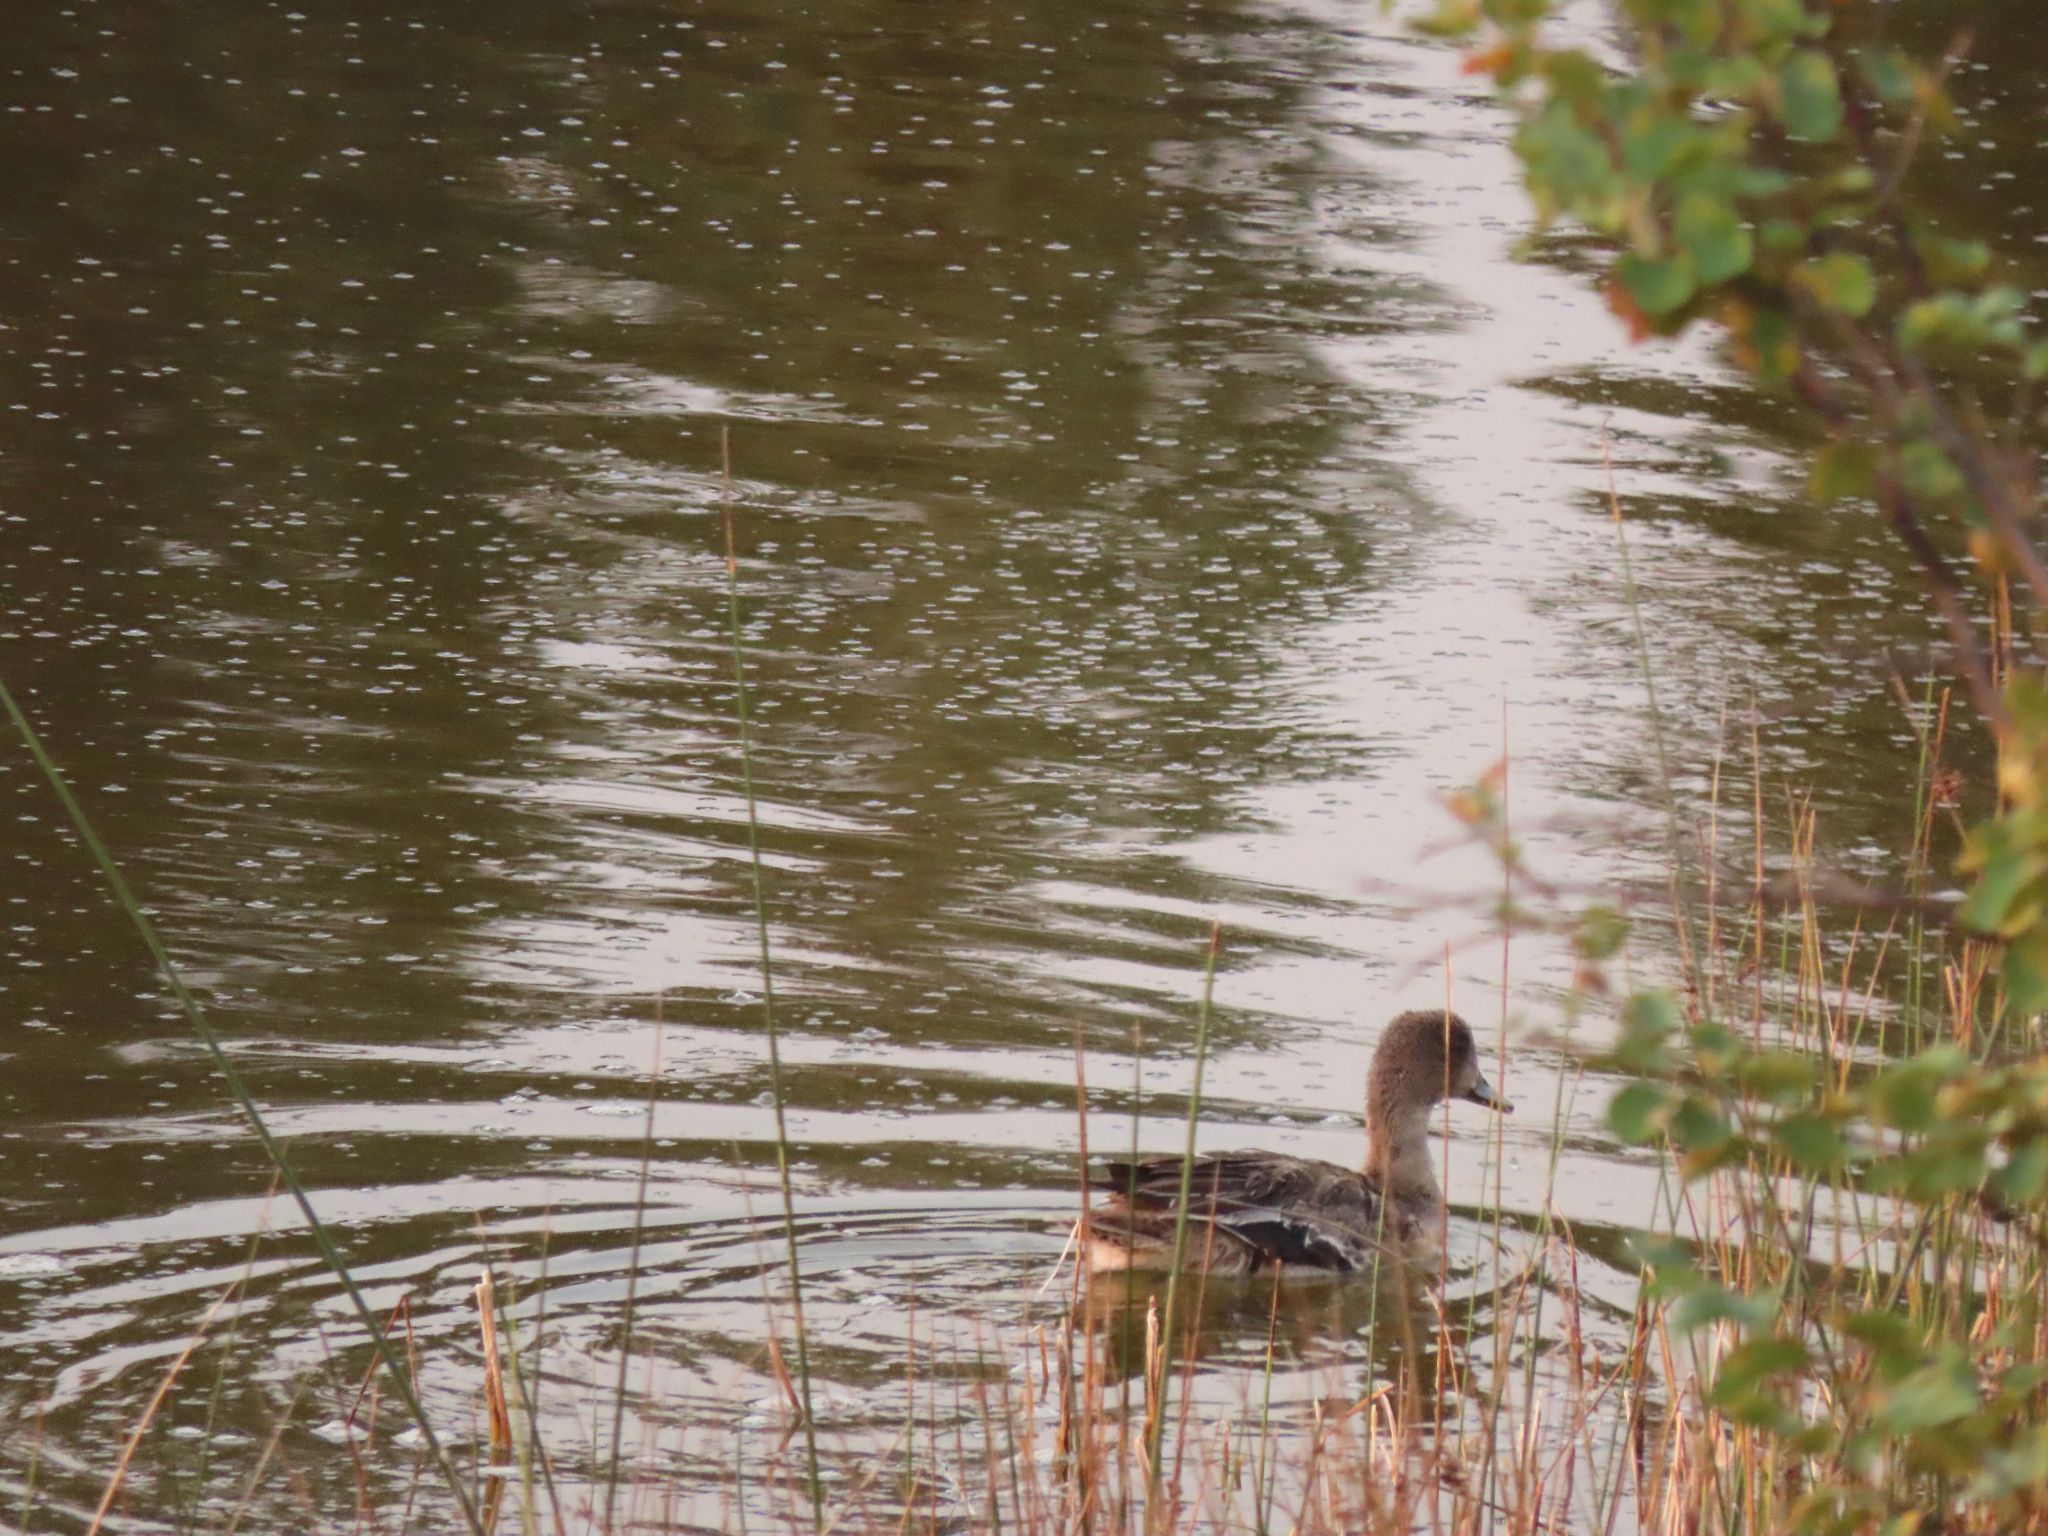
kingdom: Animalia
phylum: Chordata
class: Aves
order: Anseriformes
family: Anatidae
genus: Anas
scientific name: Anas acuta
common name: Northern pintail
